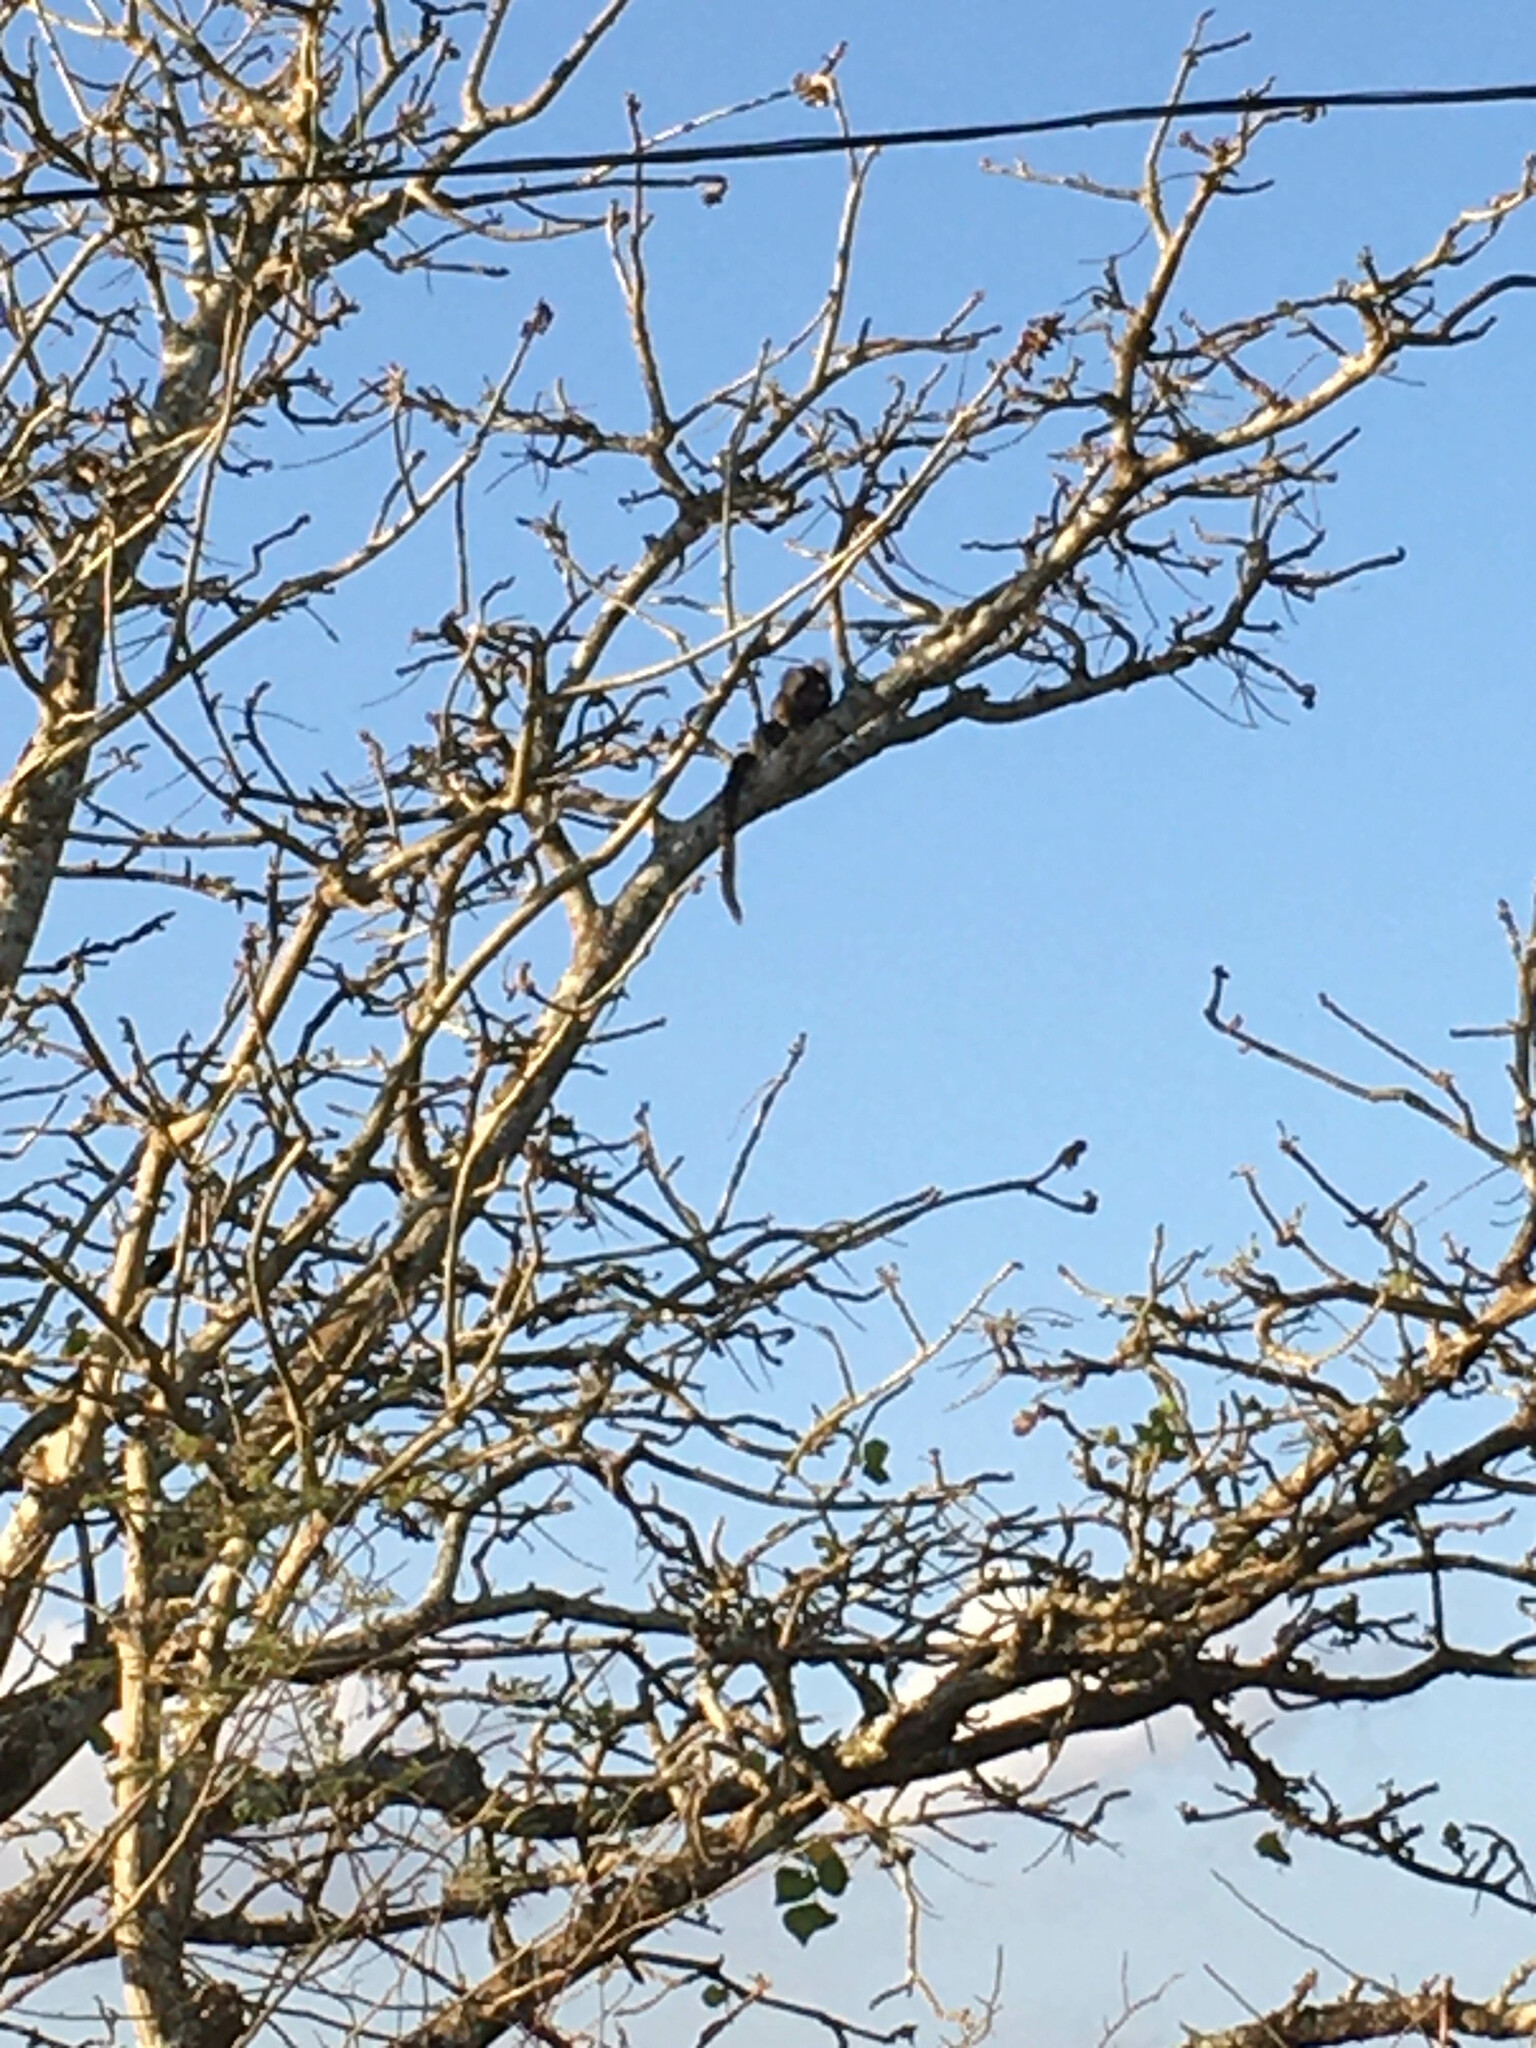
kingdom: Animalia
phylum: Chordata
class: Mammalia
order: Primates
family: Callitrichidae
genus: Callithrix
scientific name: Callithrix jacchus
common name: Common marmoset
